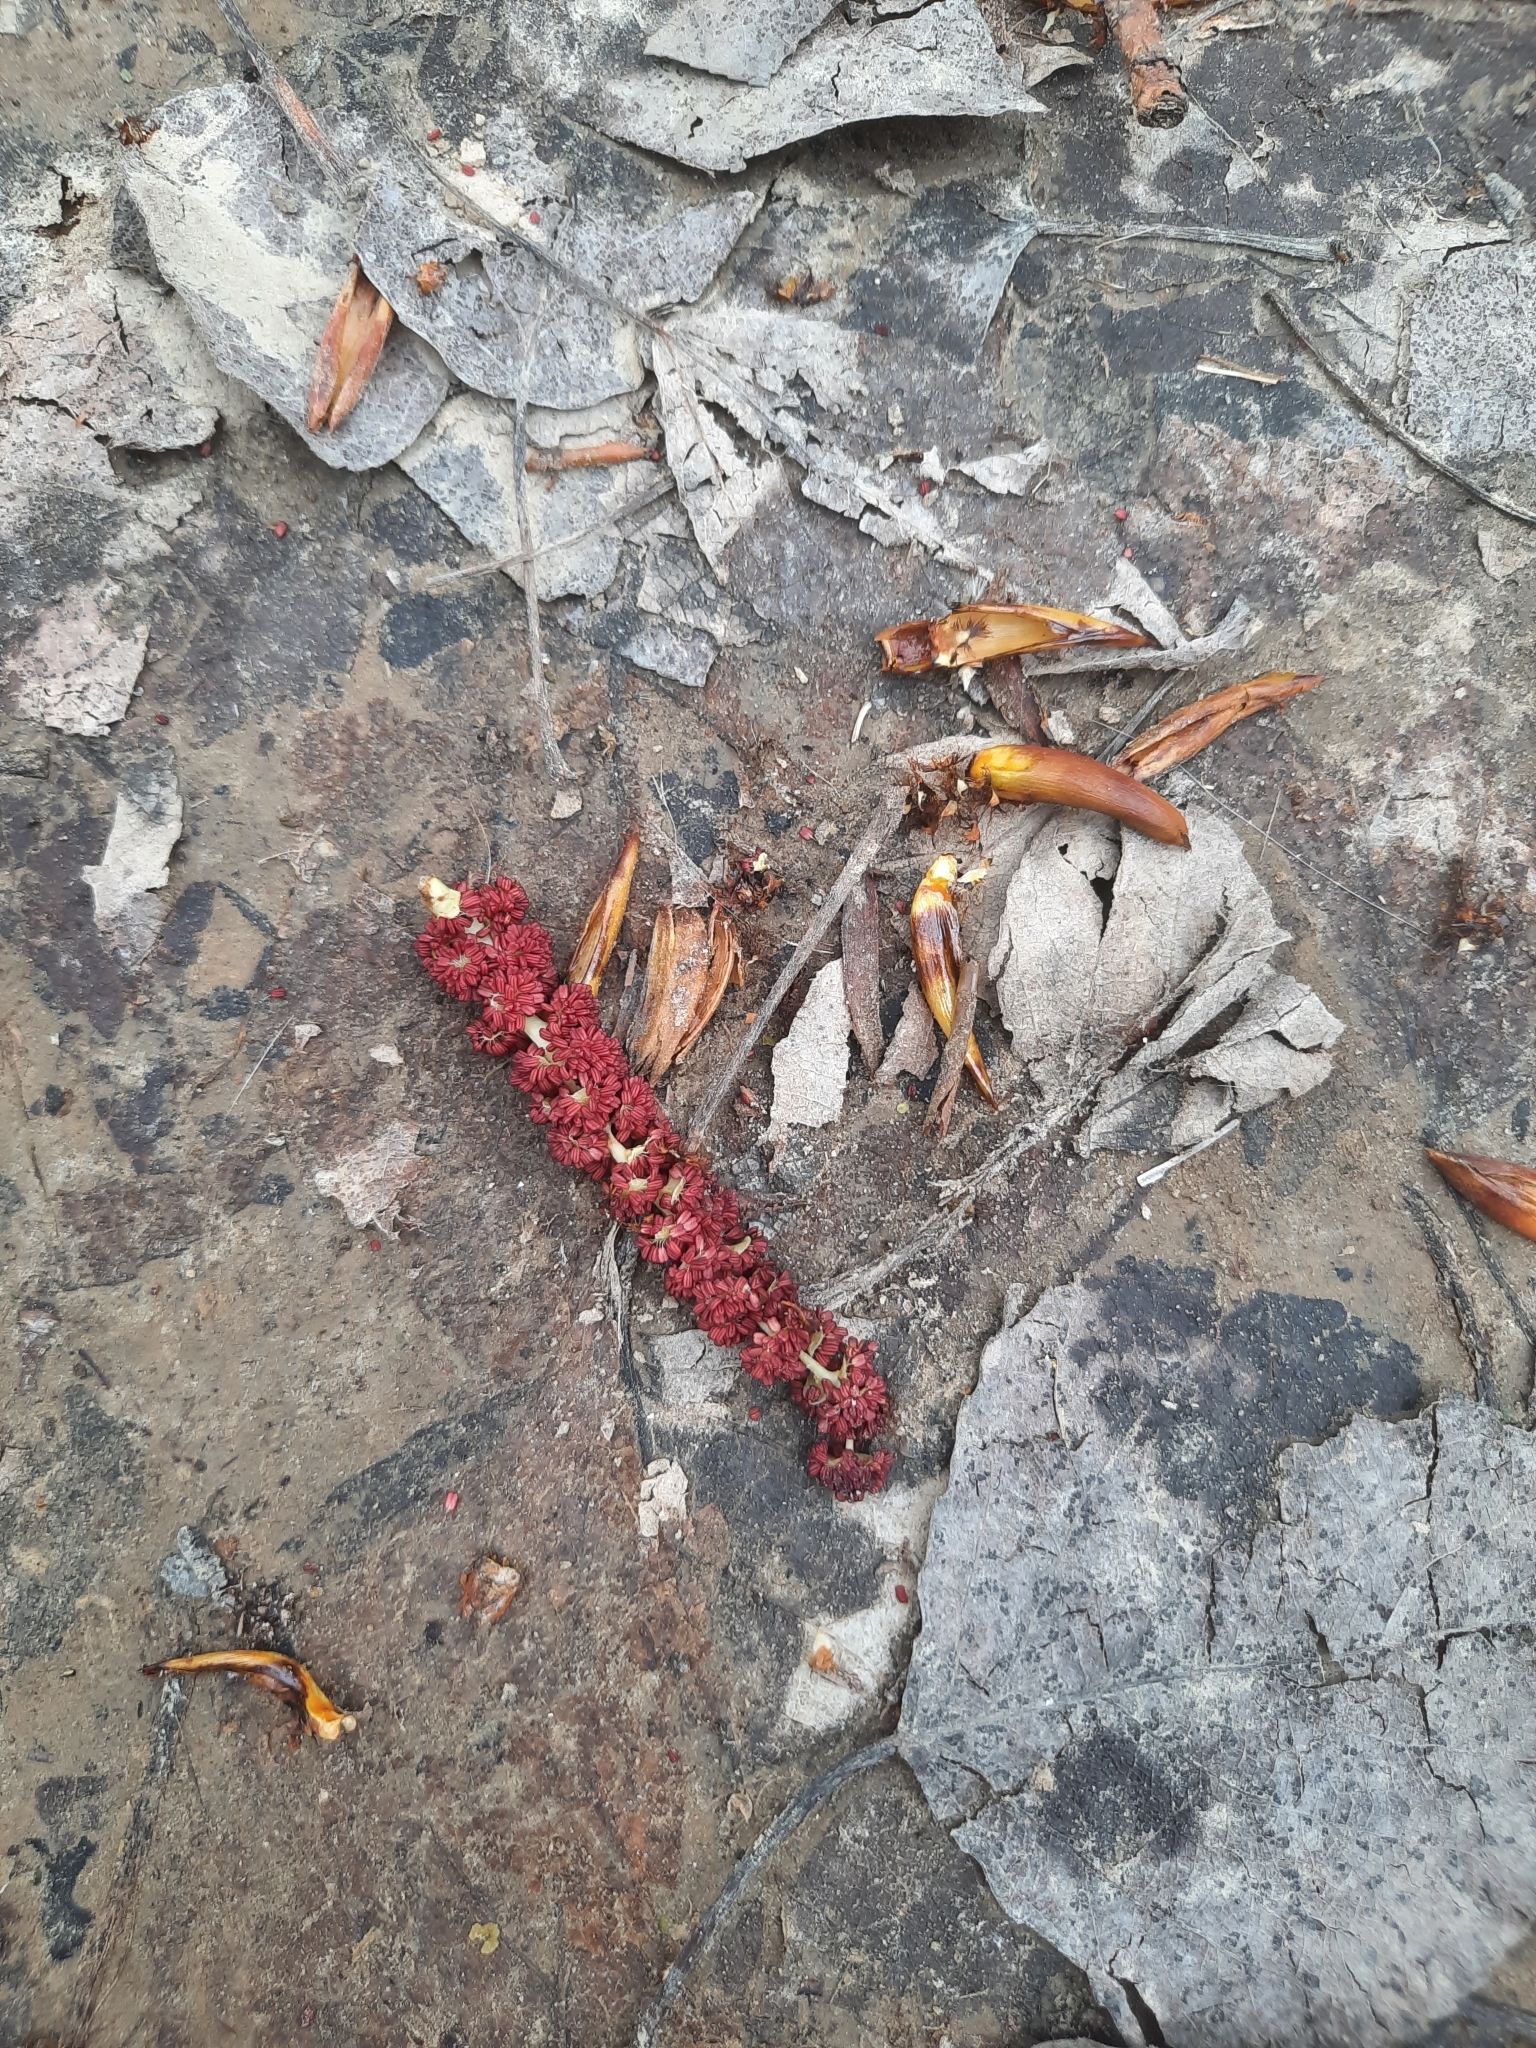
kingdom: Plantae
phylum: Tracheophyta
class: Magnoliopsida
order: Malpighiales
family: Salicaceae
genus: Populus
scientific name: Populus tremula
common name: European aspen
